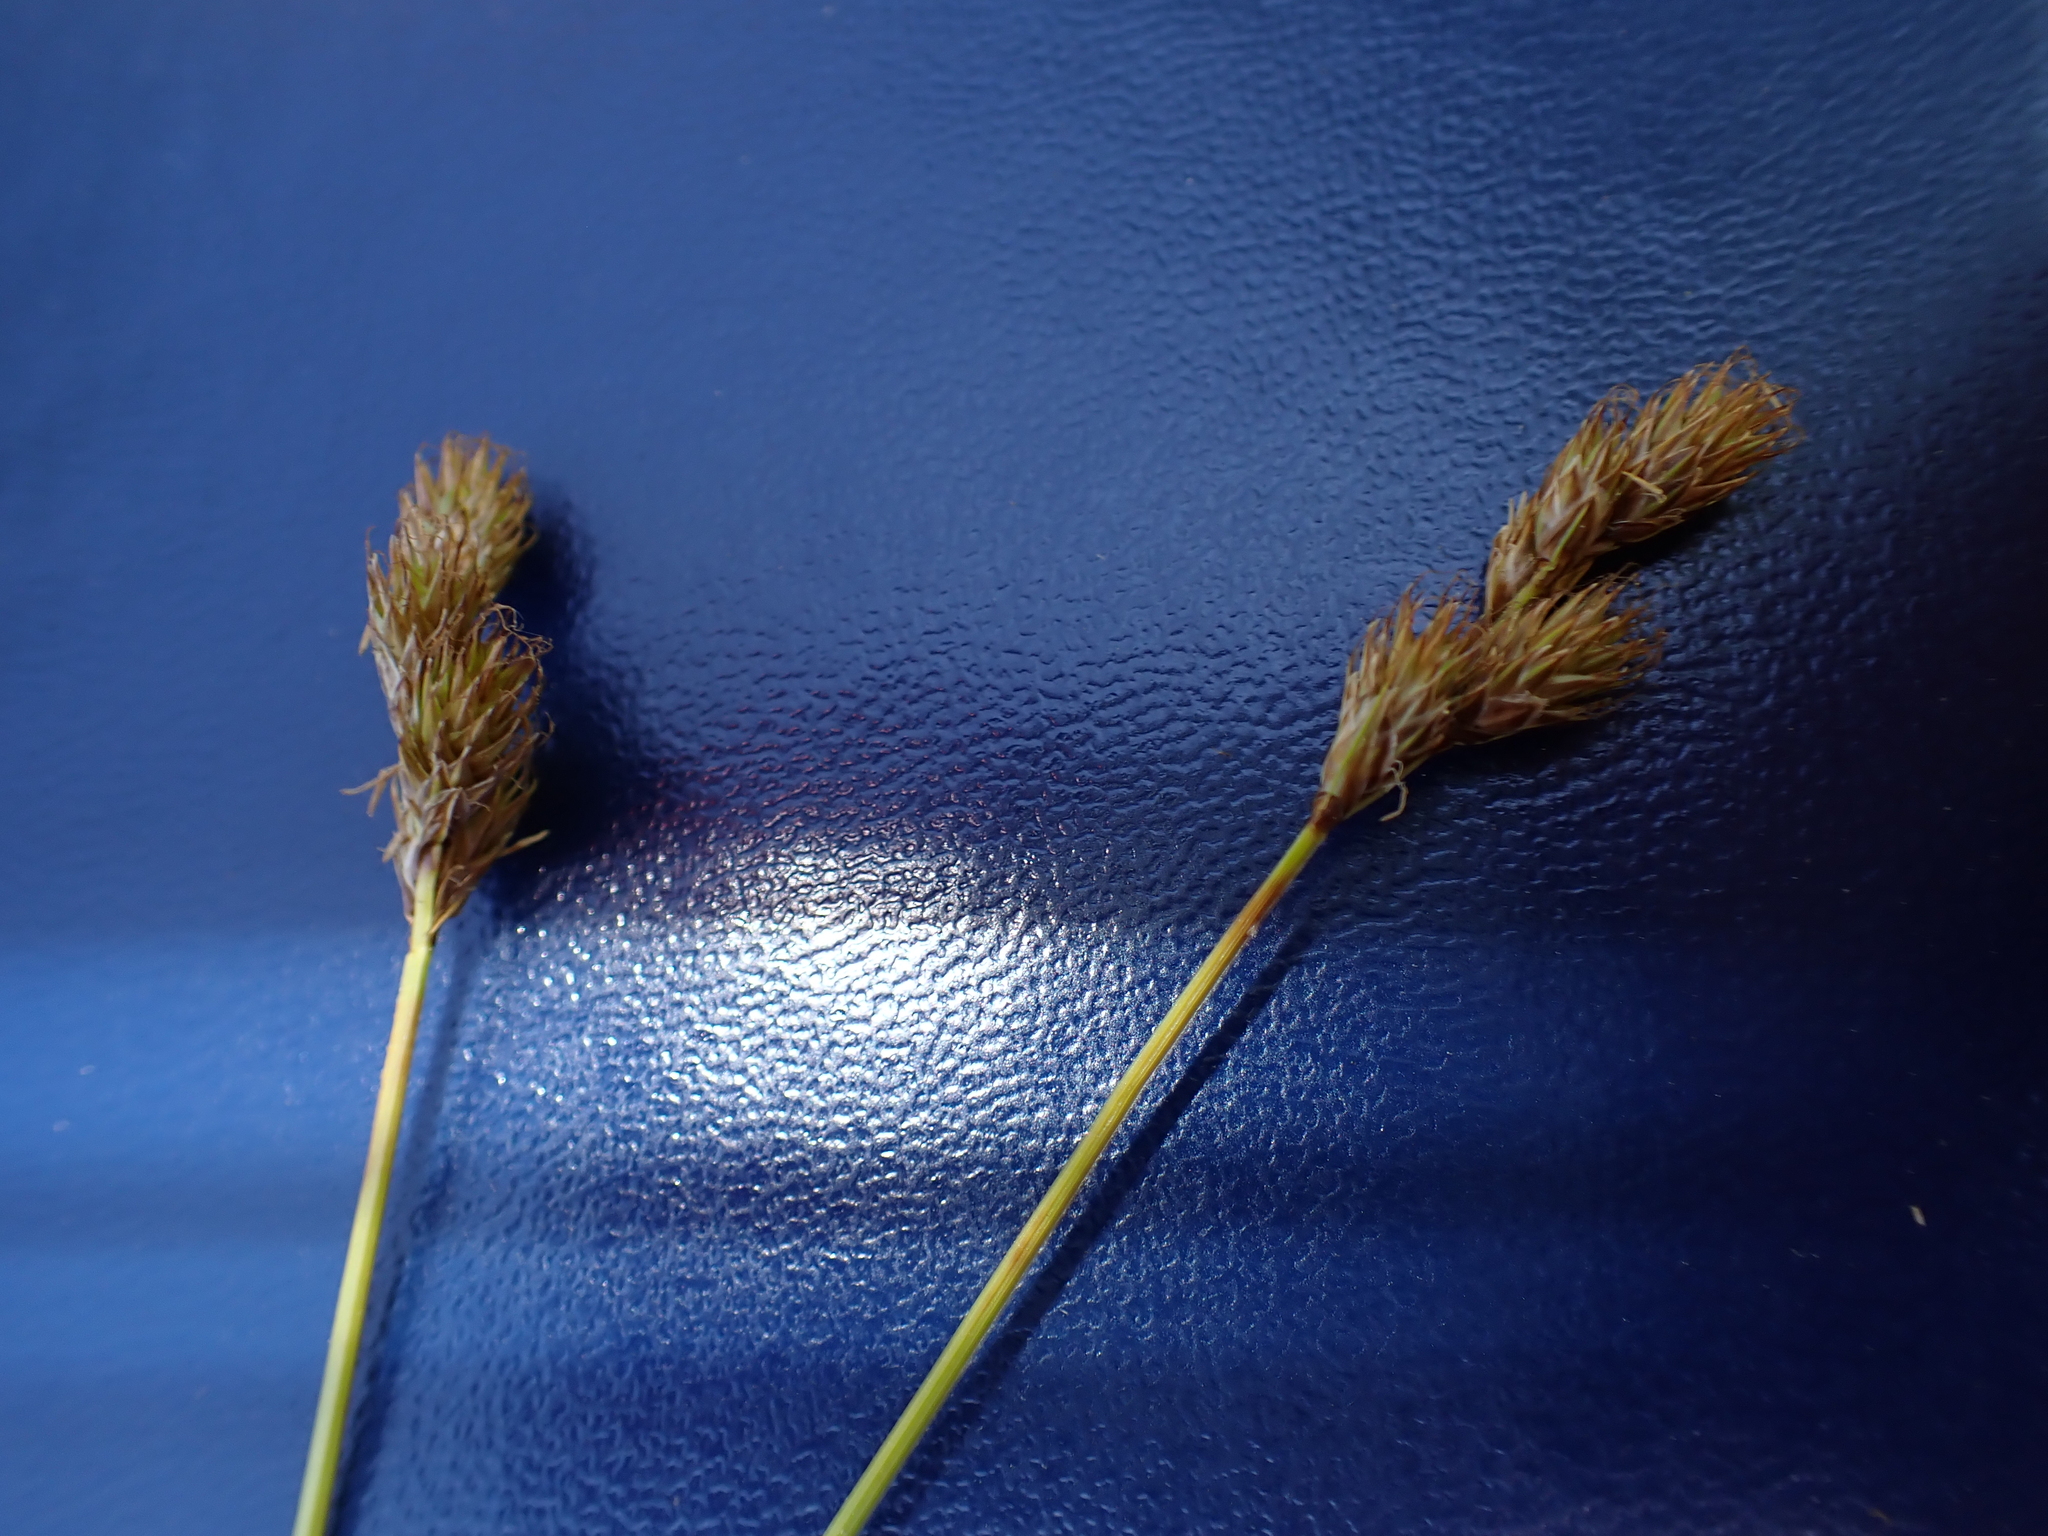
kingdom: Plantae
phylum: Tracheophyta
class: Liliopsida
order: Poales
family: Cyperaceae
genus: Carex
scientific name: Carex leporina
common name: Oval sedge
